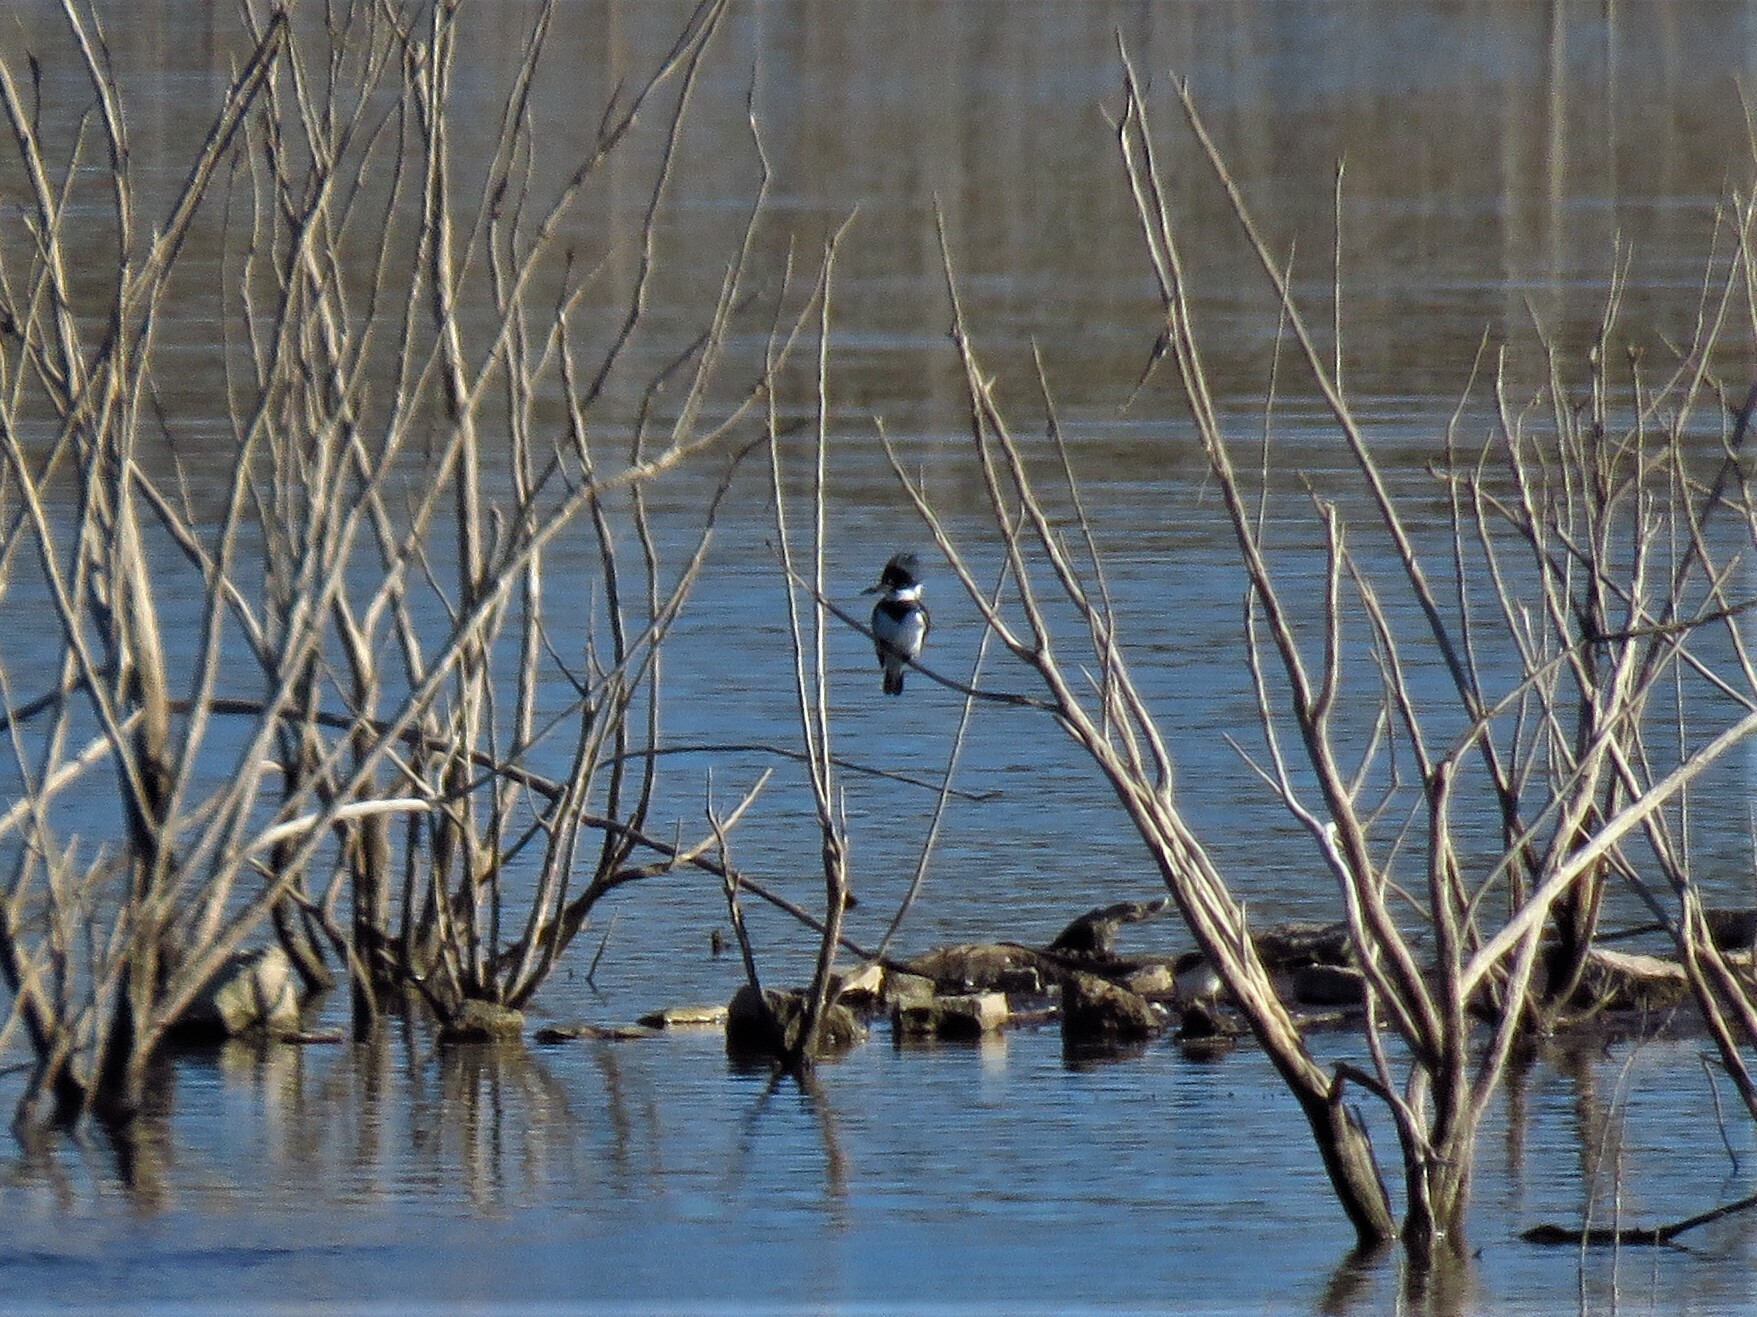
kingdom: Animalia
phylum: Chordata
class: Aves
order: Coraciiformes
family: Alcedinidae
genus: Megaceryle
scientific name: Megaceryle alcyon
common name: Belted kingfisher
